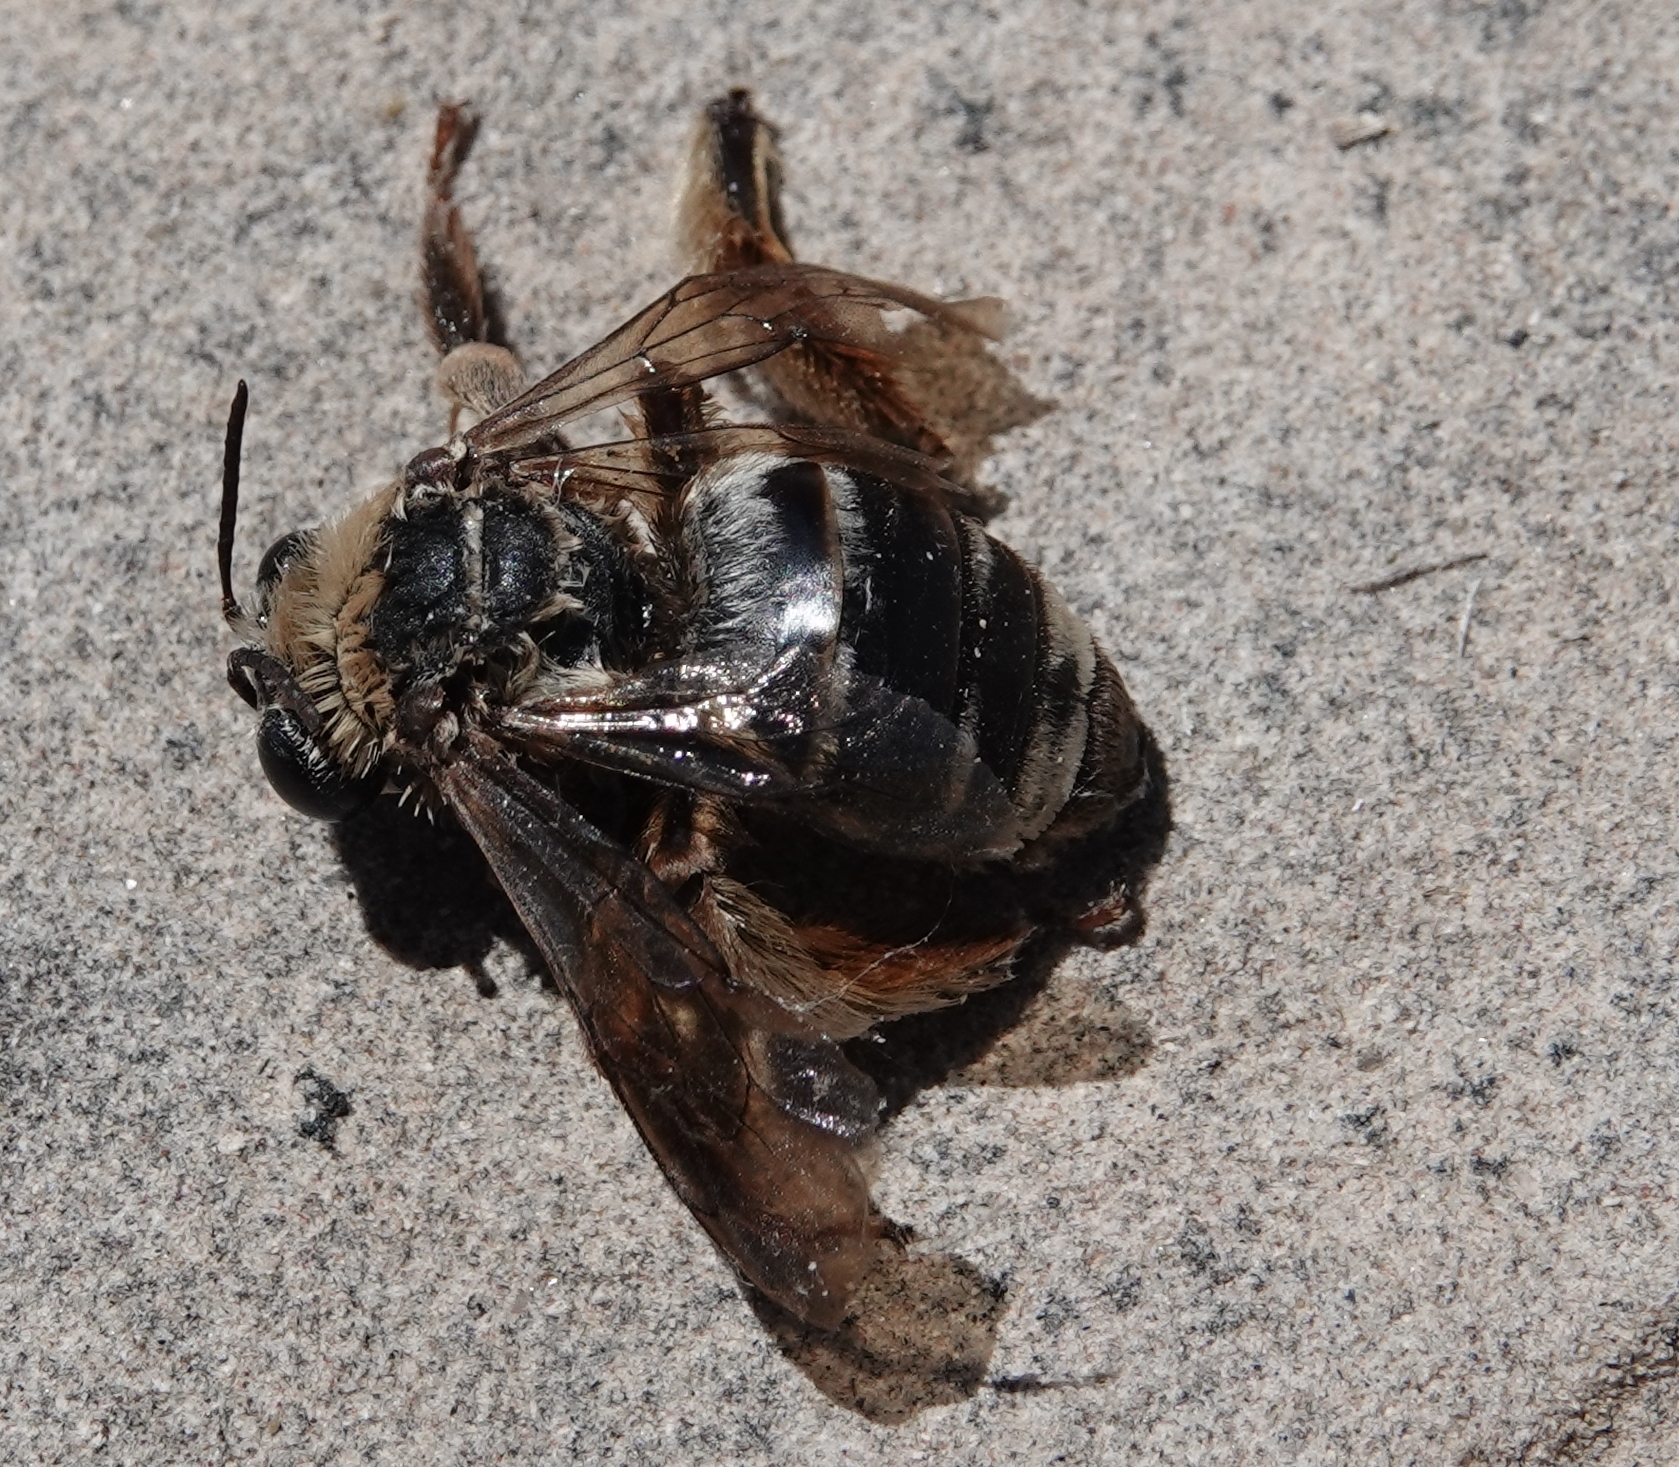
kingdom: Animalia
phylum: Arthropoda
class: Insecta
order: Hymenoptera
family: Apidae
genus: Svastra
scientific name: Svastra obliqua
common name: Oblique longhorn
